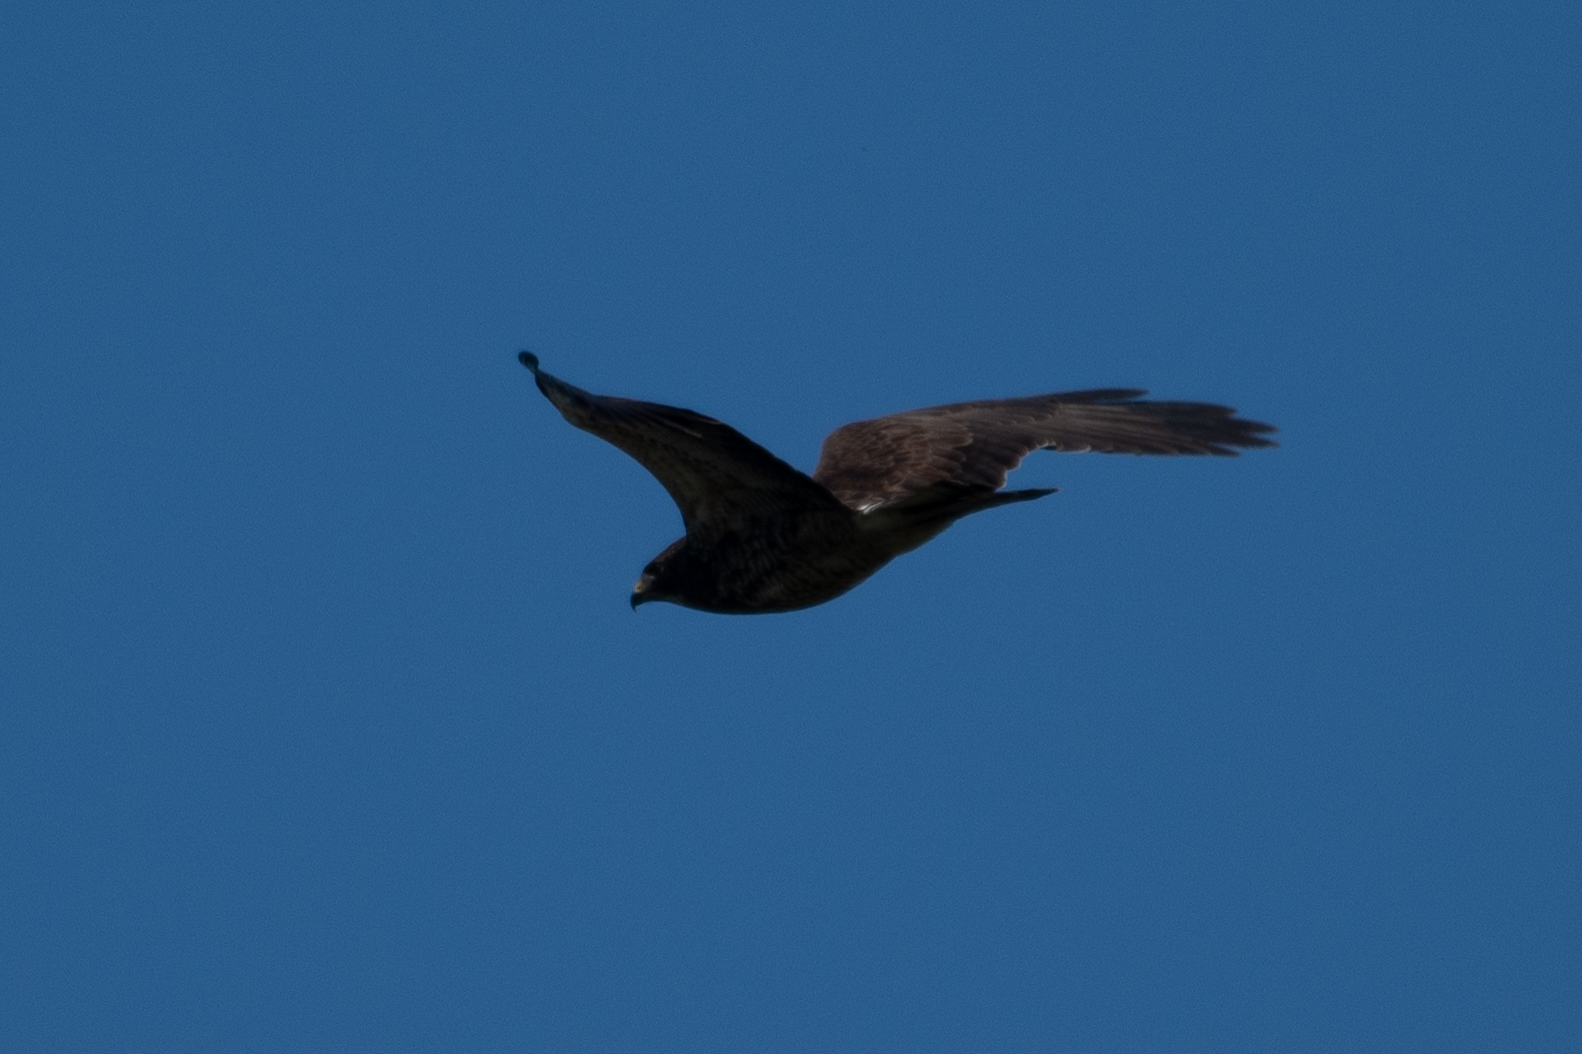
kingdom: Animalia
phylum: Chordata
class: Aves
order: Accipitriformes
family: Accipitridae
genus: Buteo
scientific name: Buteo swainsoni
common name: Swainson's hawk
